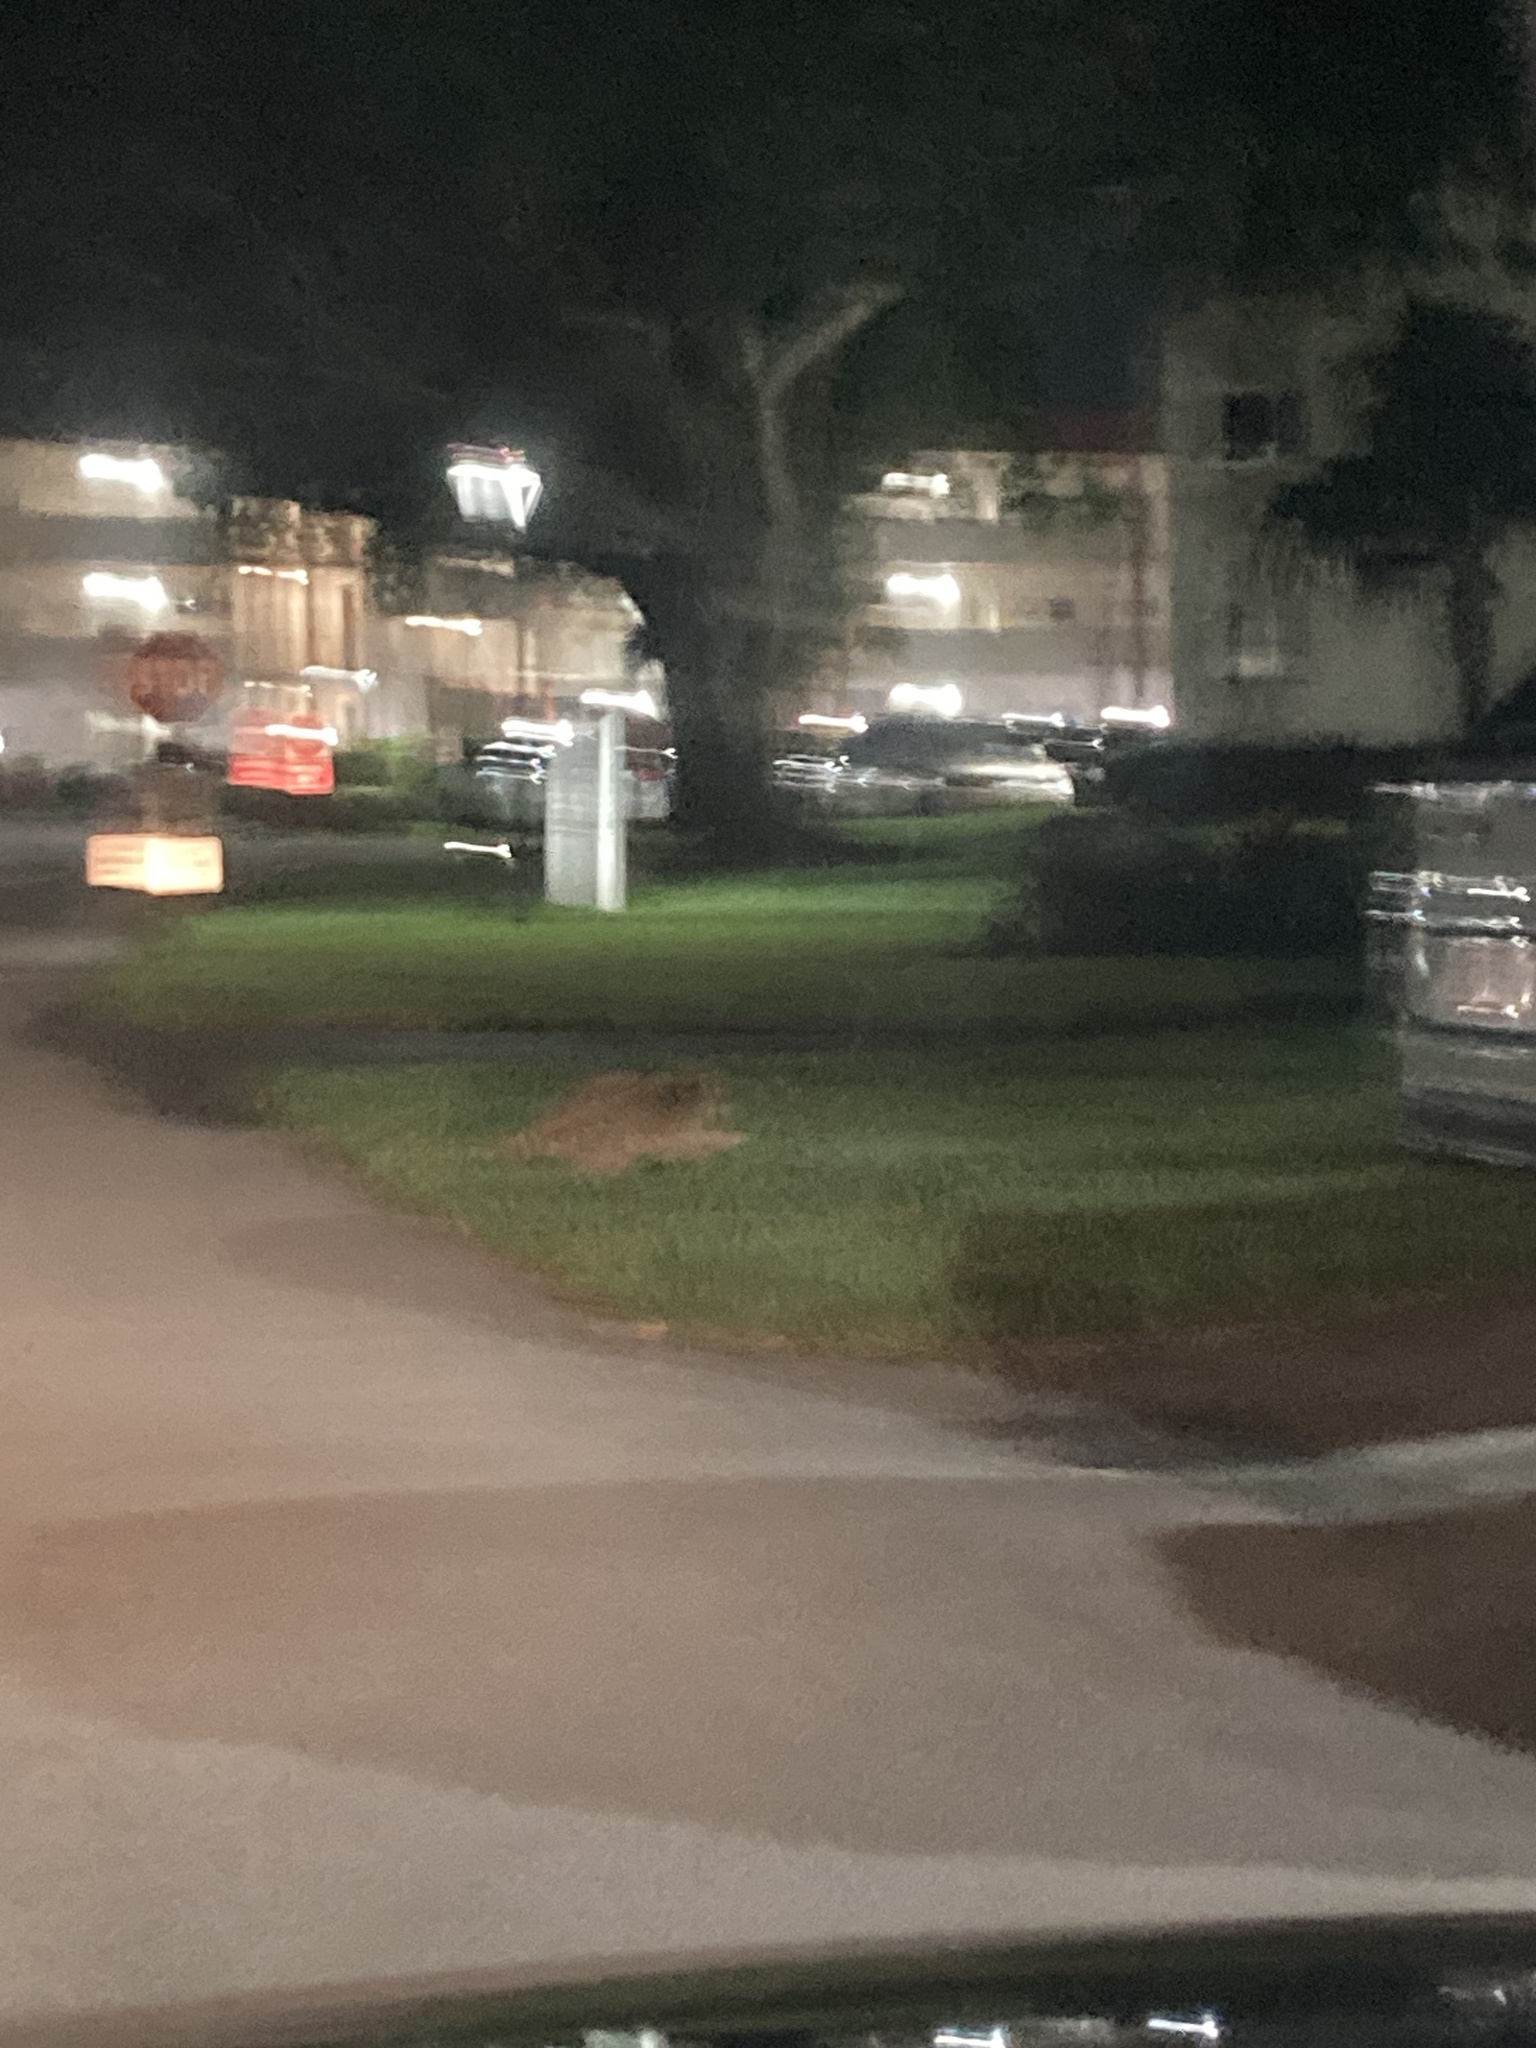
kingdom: Animalia
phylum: Chordata
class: Mammalia
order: Carnivora
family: Procyonidae
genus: Procyon
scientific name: Procyon lotor
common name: Raccoon
